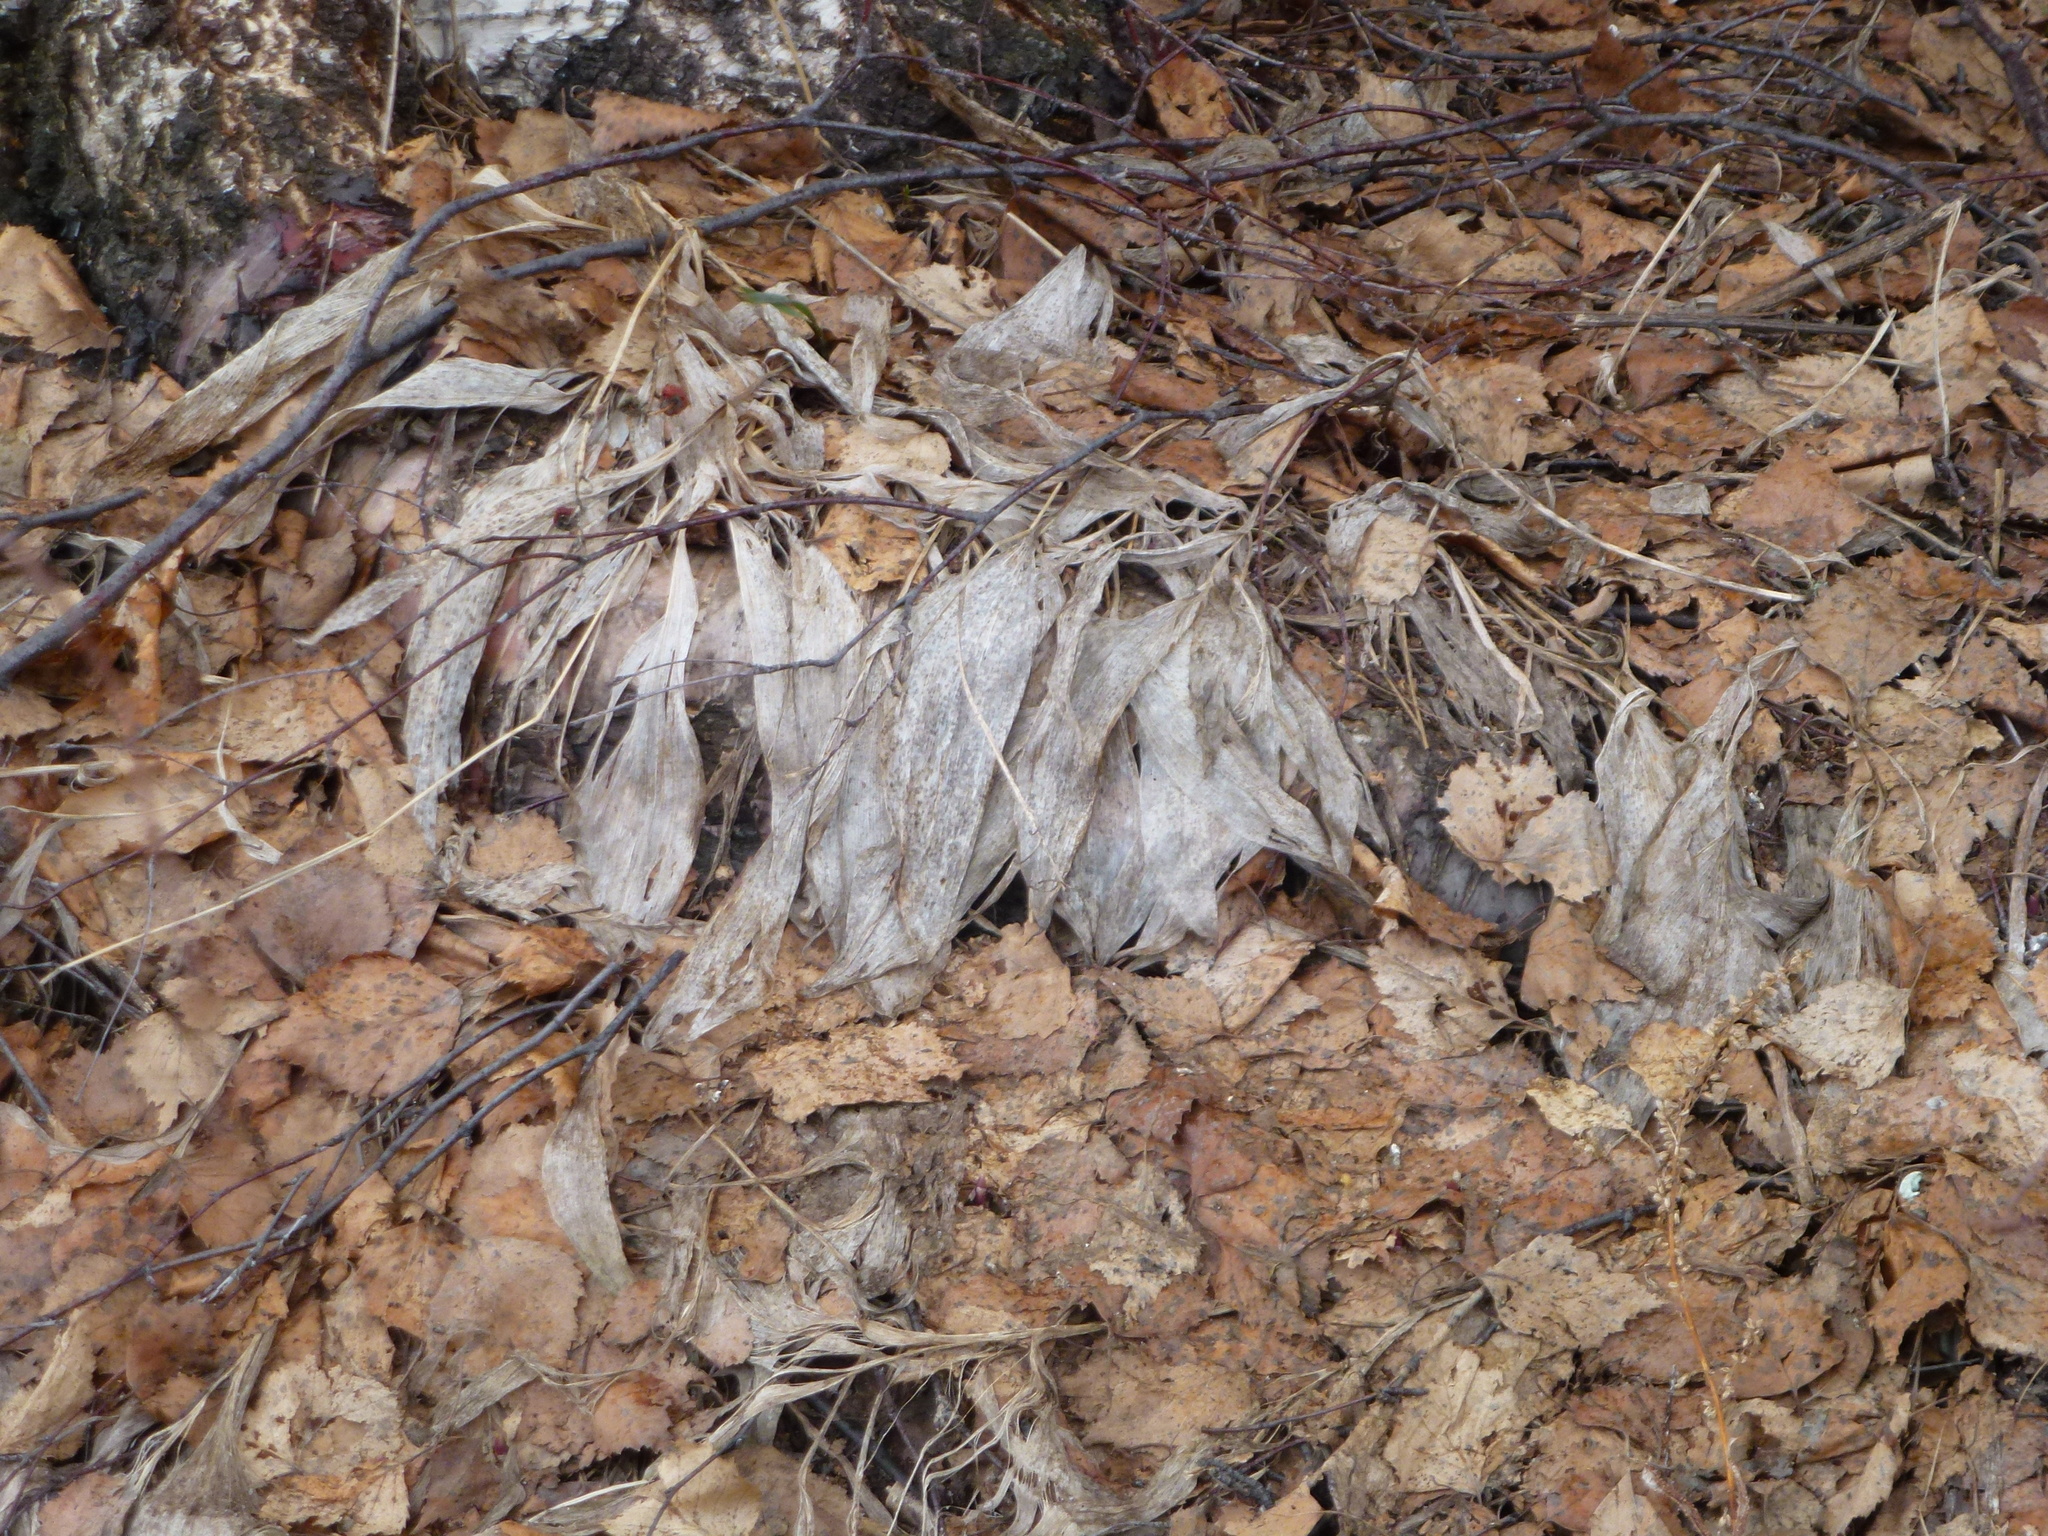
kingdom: Plantae
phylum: Tracheophyta
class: Liliopsida
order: Asparagales
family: Asparagaceae
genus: Convallaria
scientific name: Convallaria majalis
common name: Lily-of-the-valley
